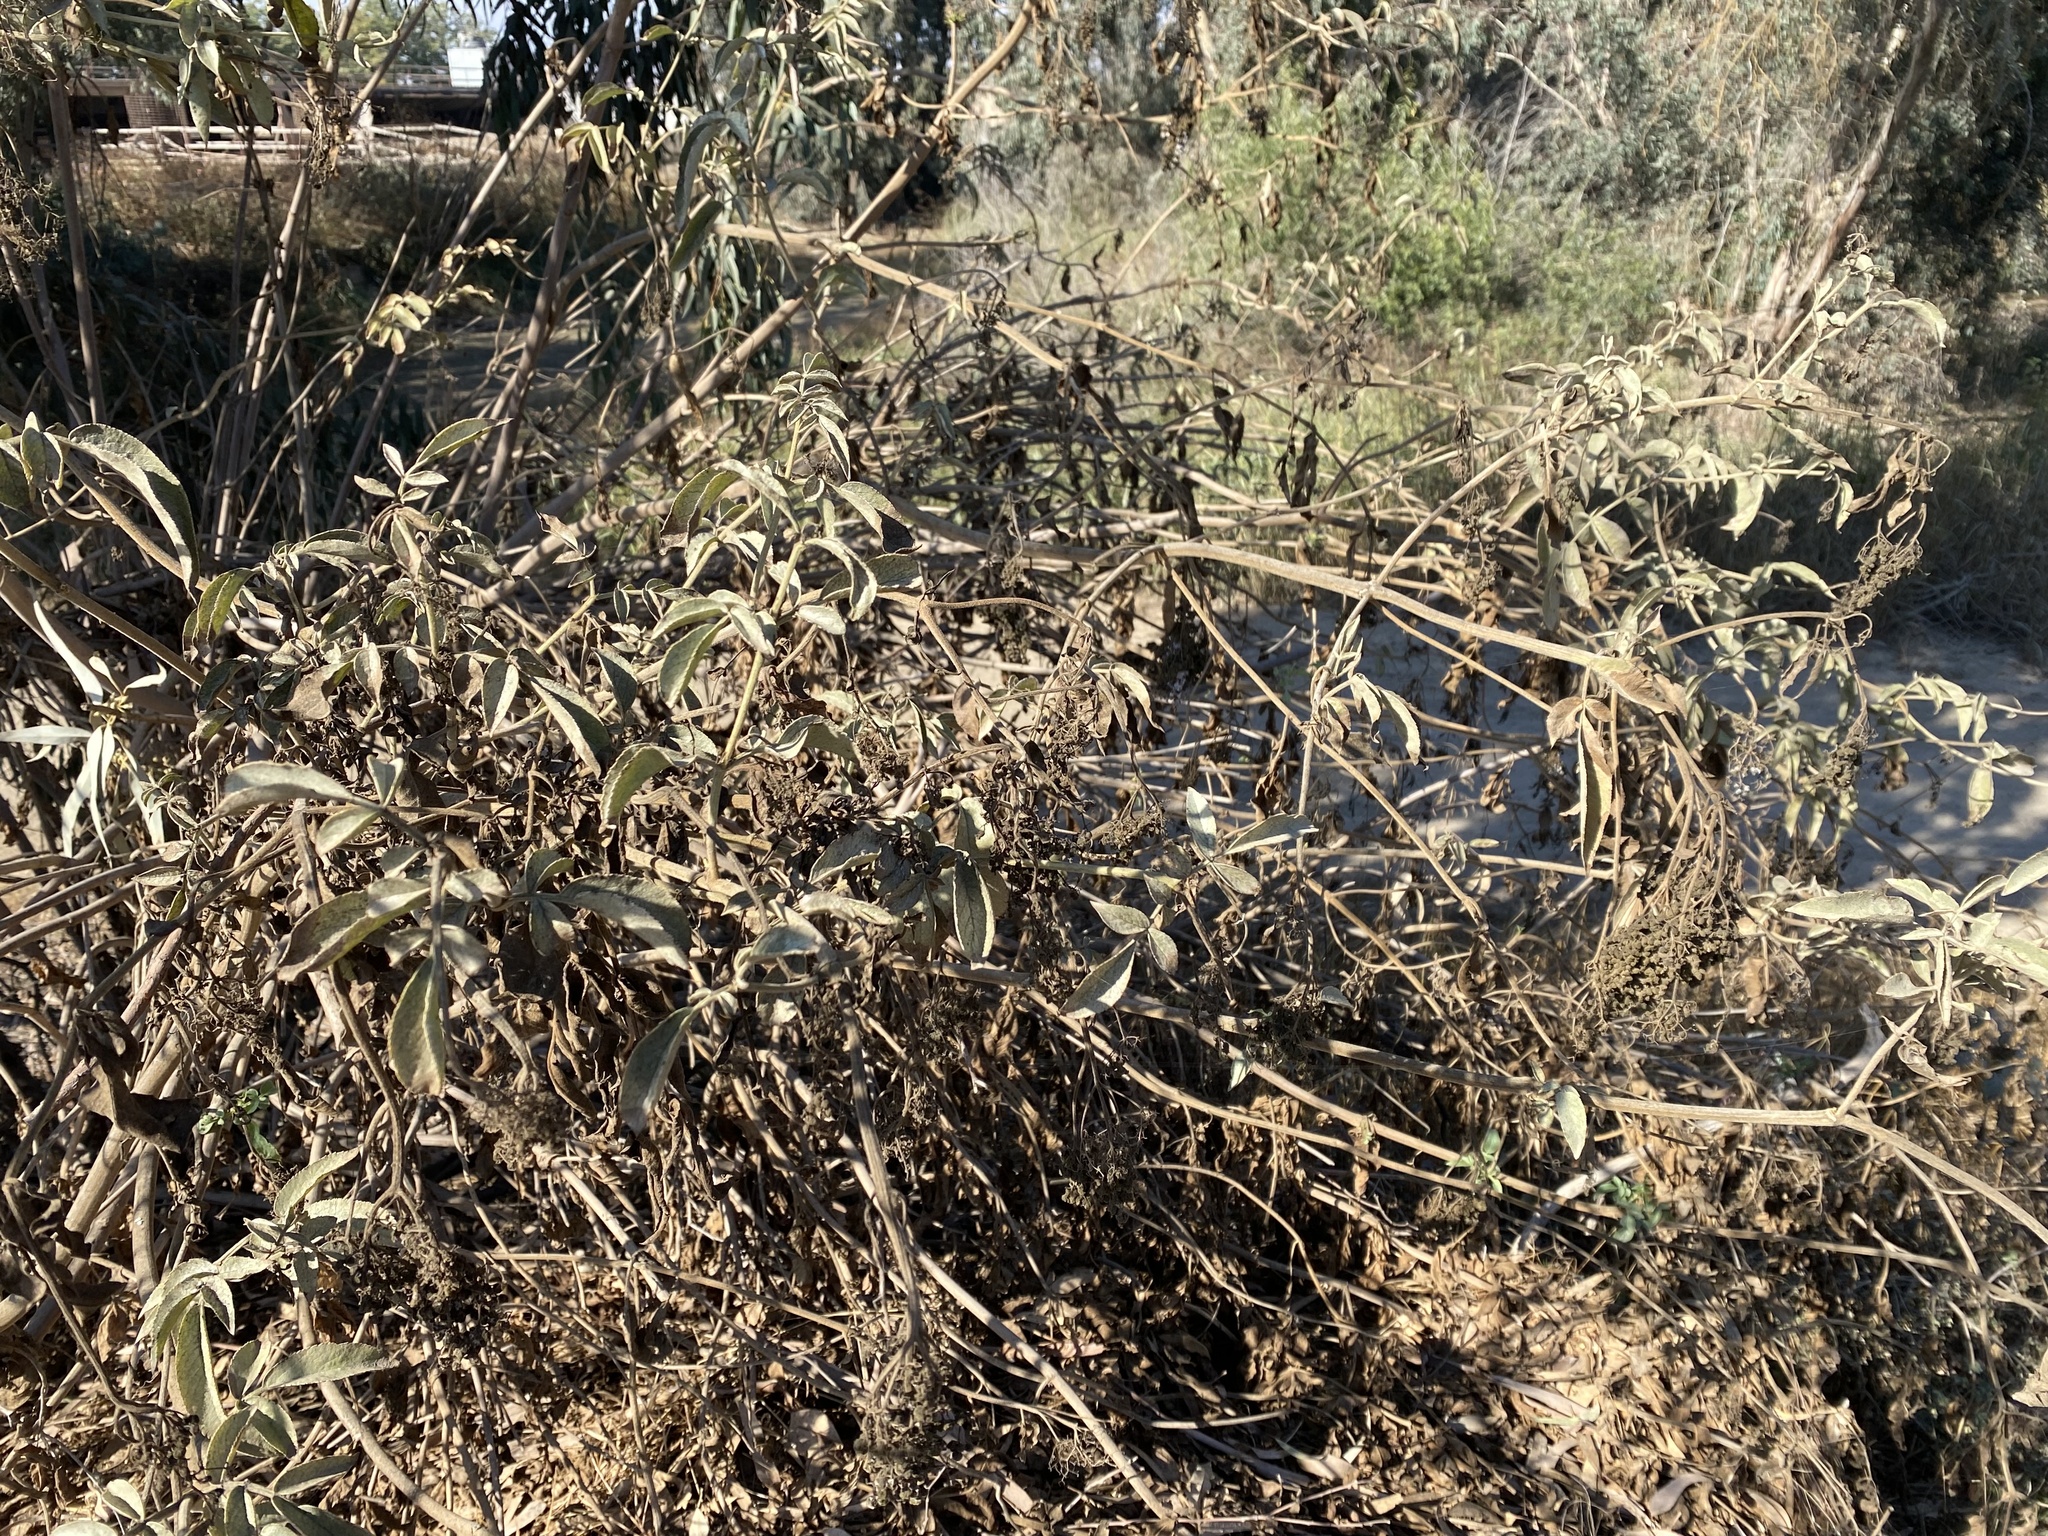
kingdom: Plantae
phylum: Tracheophyta
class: Magnoliopsida
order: Dipsacales
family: Viburnaceae
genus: Sambucus
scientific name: Sambucus cerulea
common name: Blue elder
